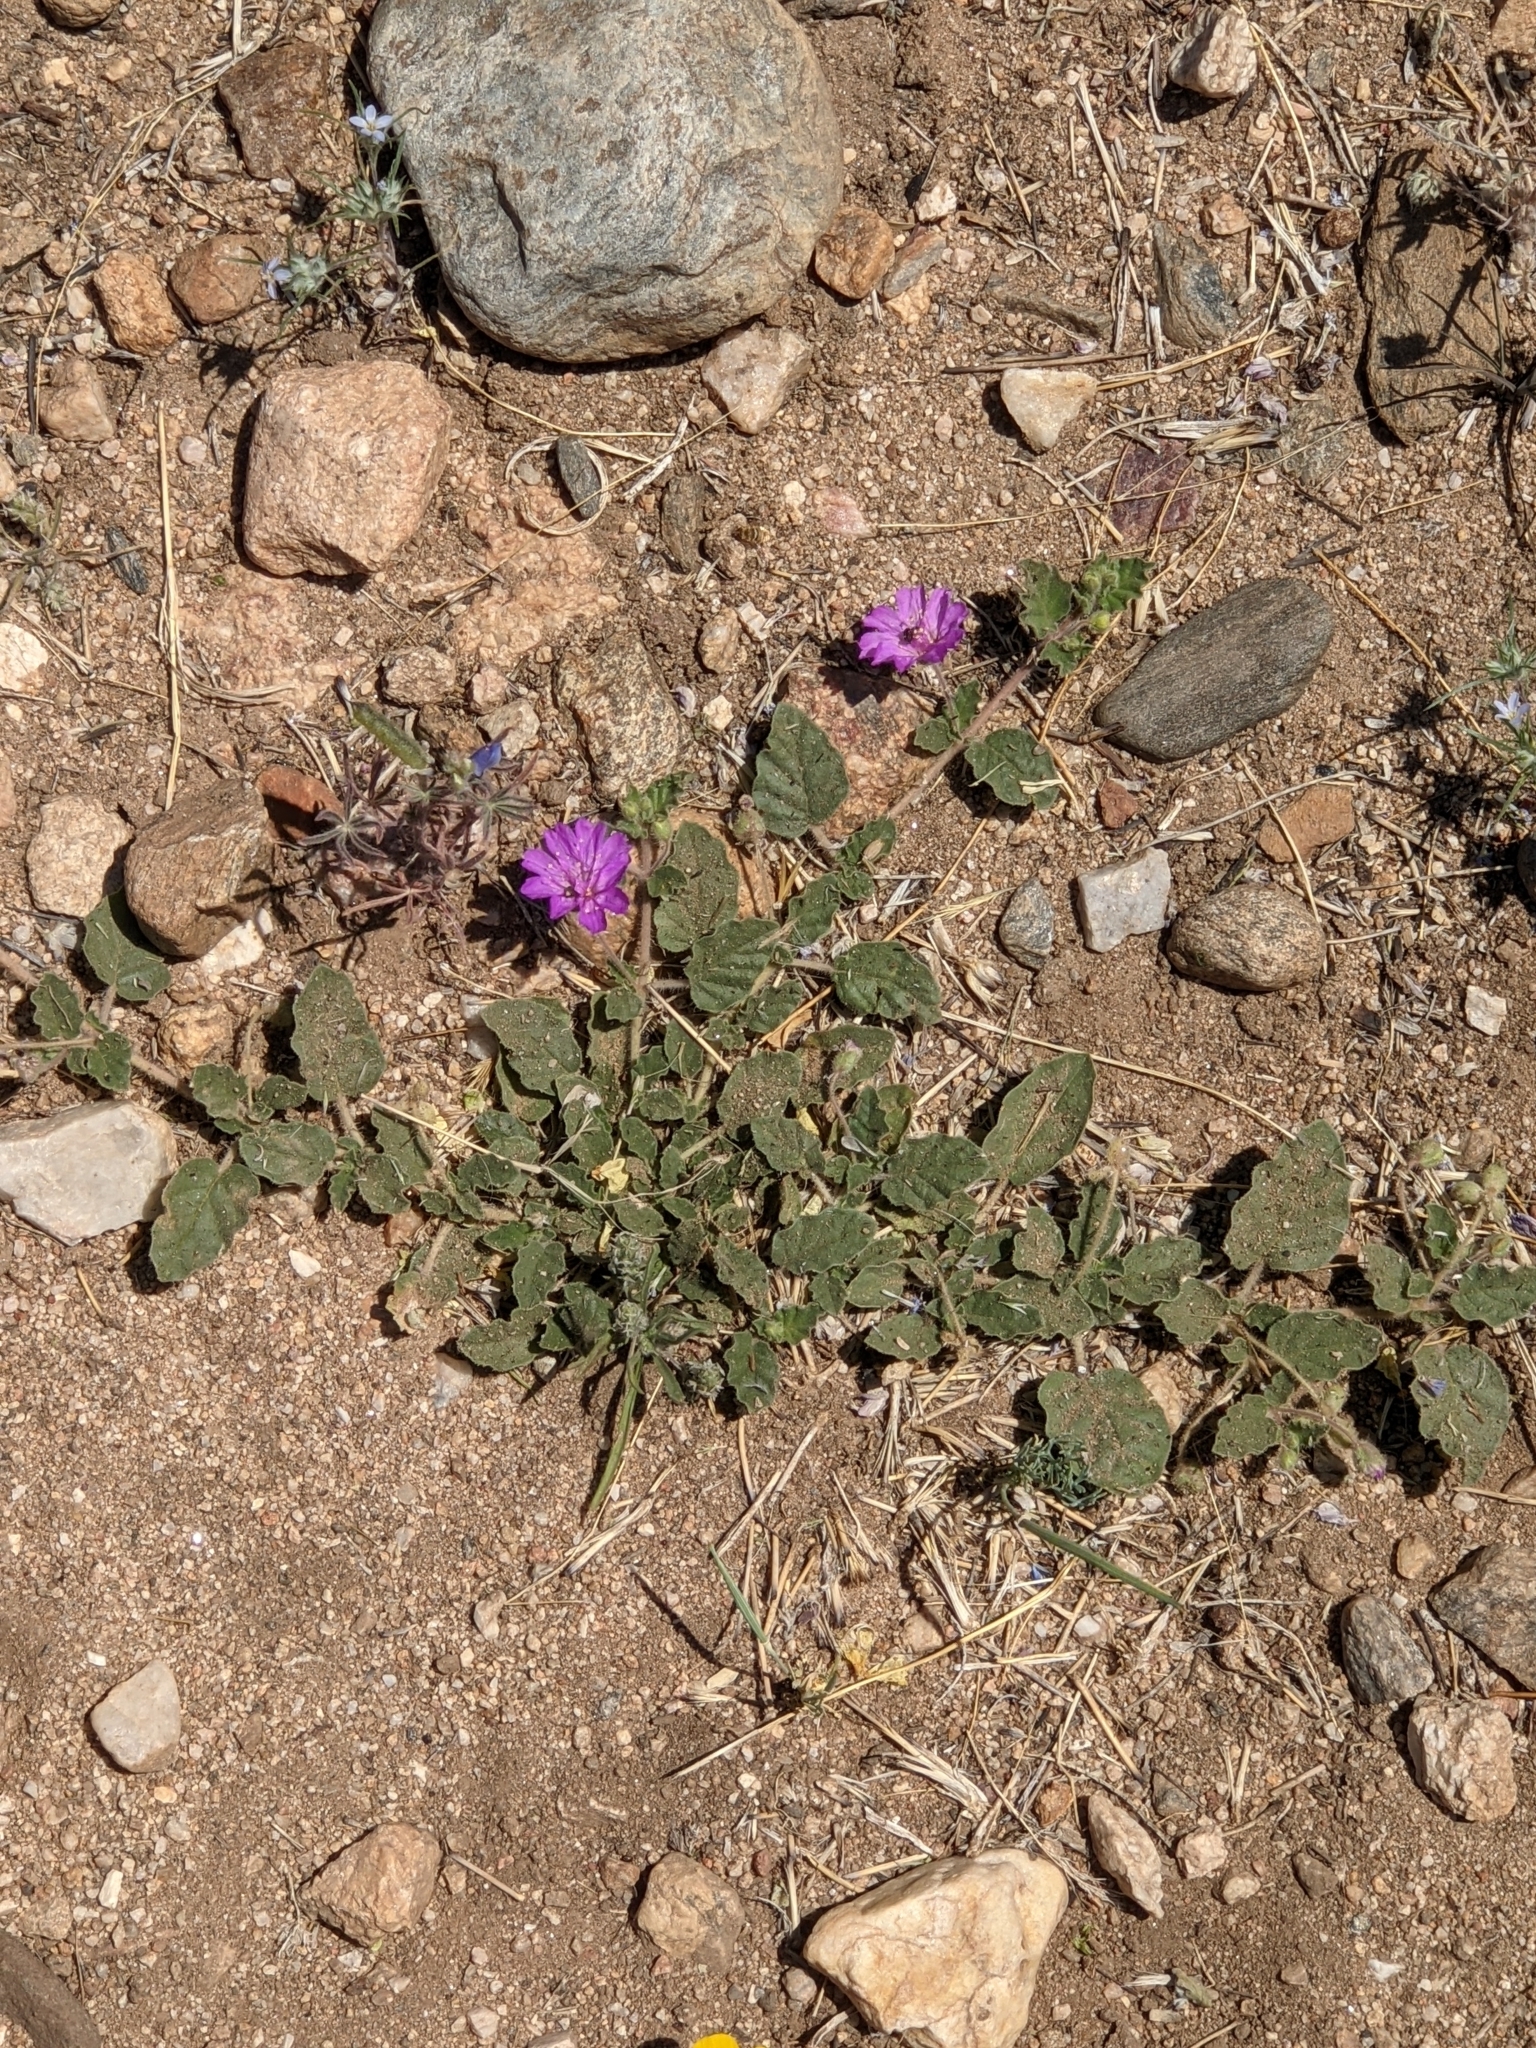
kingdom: Plantae
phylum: Tracheophyta
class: Magnoliopsida
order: Caryophyllales
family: Nyctaginaceae
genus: Allionia
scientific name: Allionia incarnata
